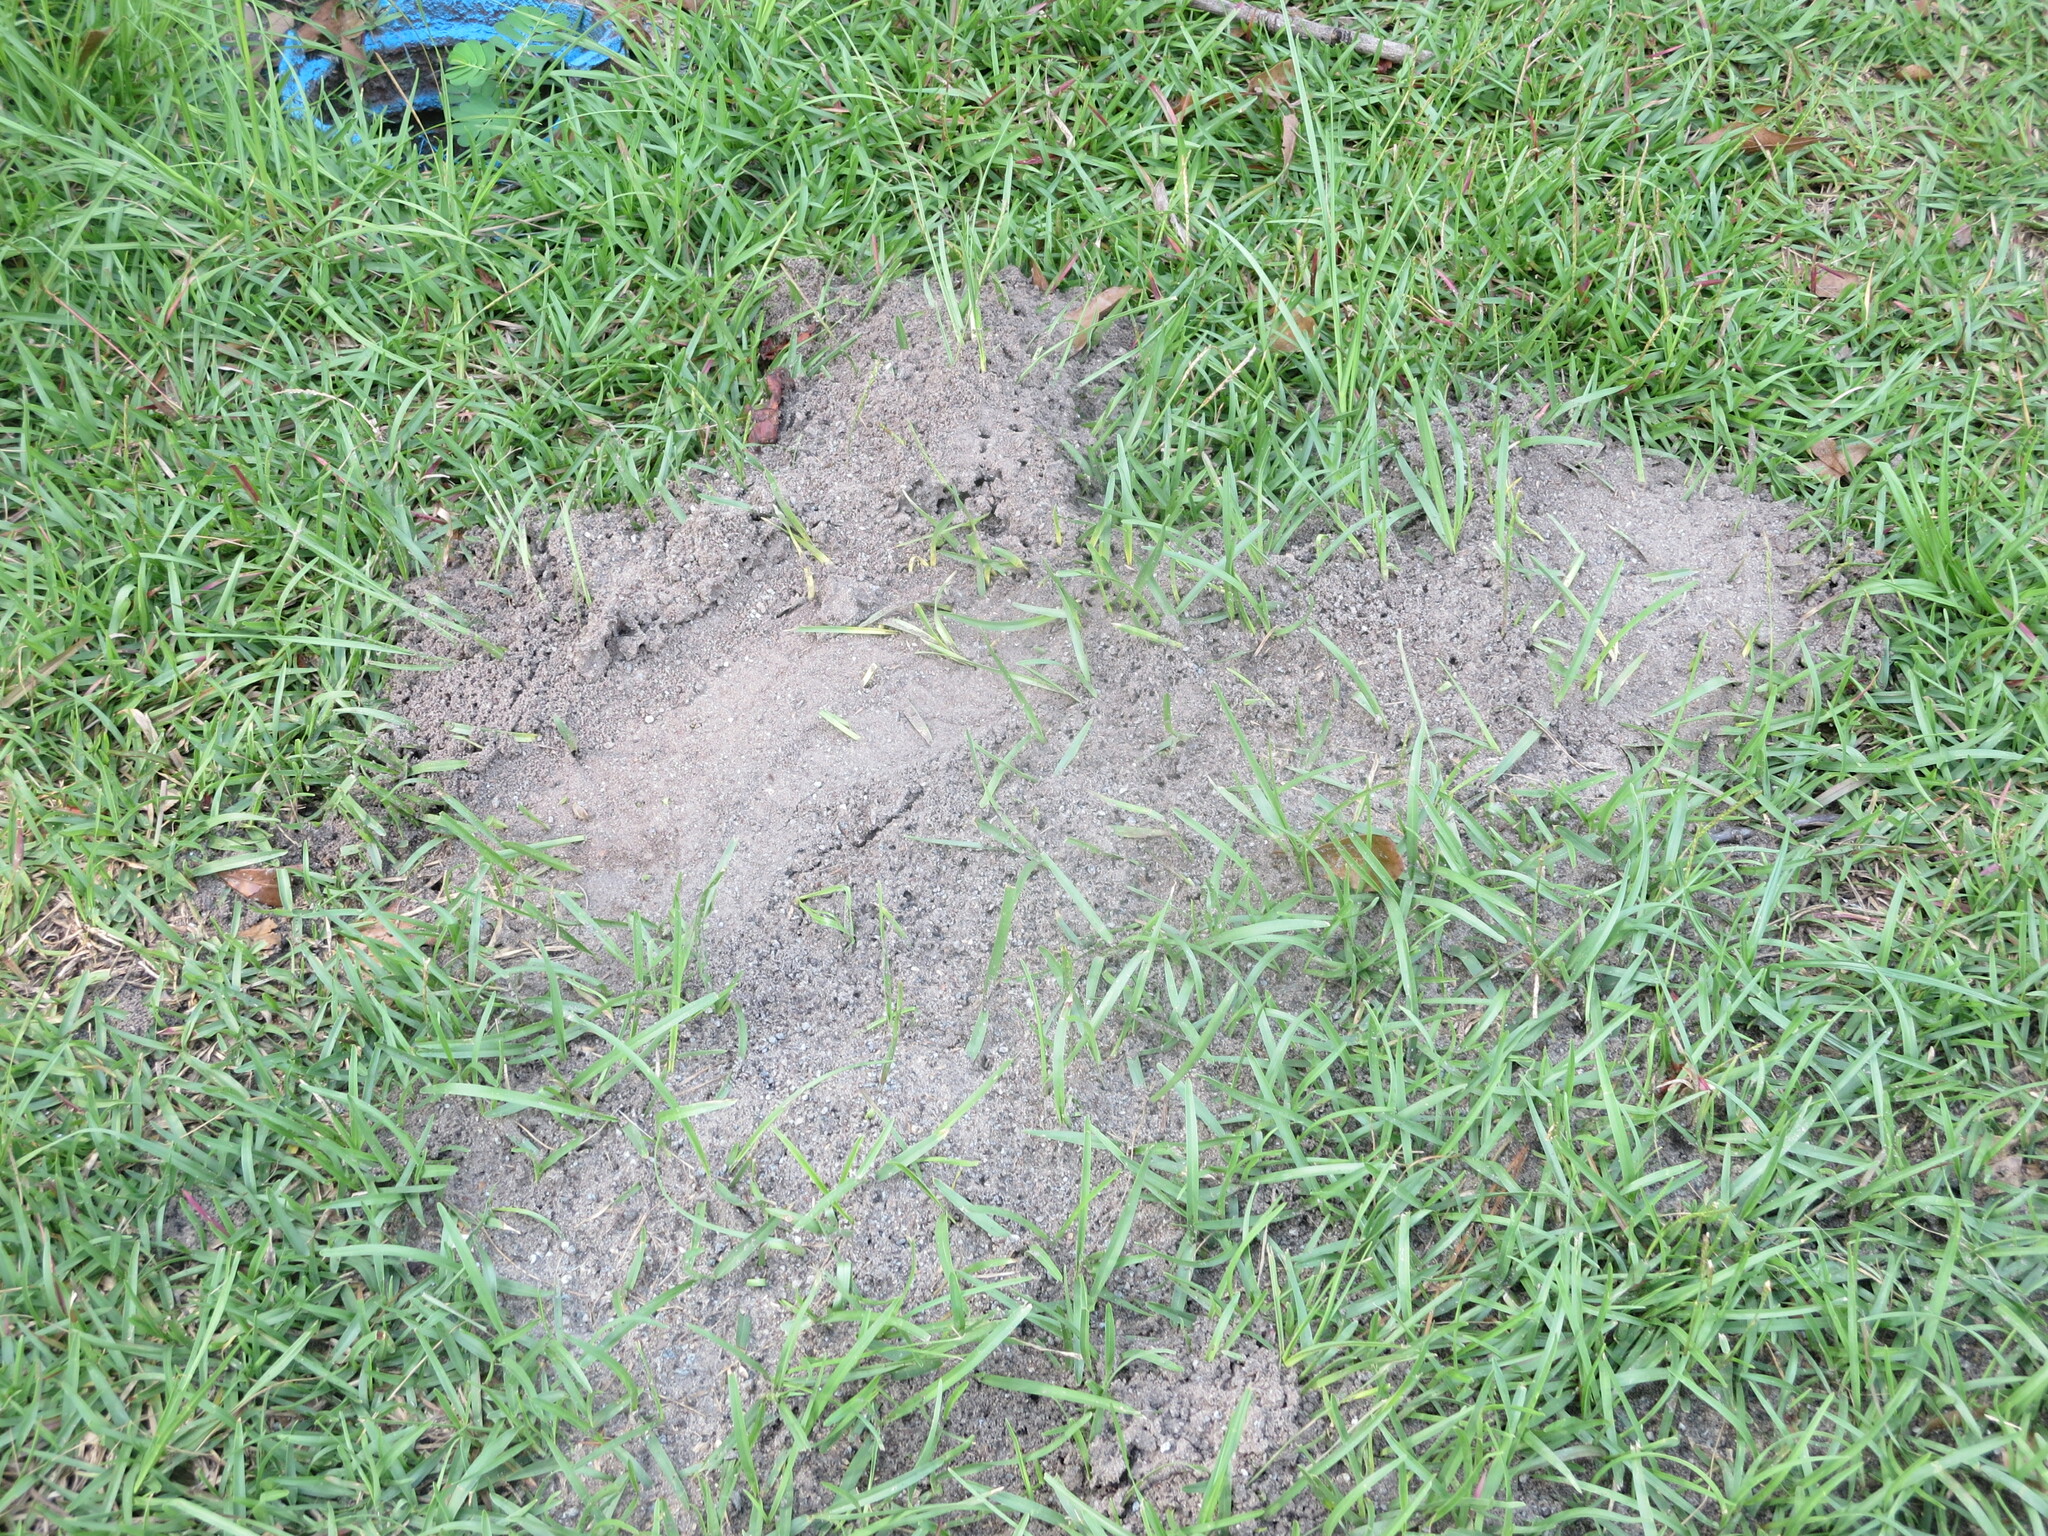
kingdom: Animalia
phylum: Arthropoda
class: Insecta
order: Hymenoptera
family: Formicidae
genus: Solenopsis
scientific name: Solenopsis invicta
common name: Red imported fire ant
